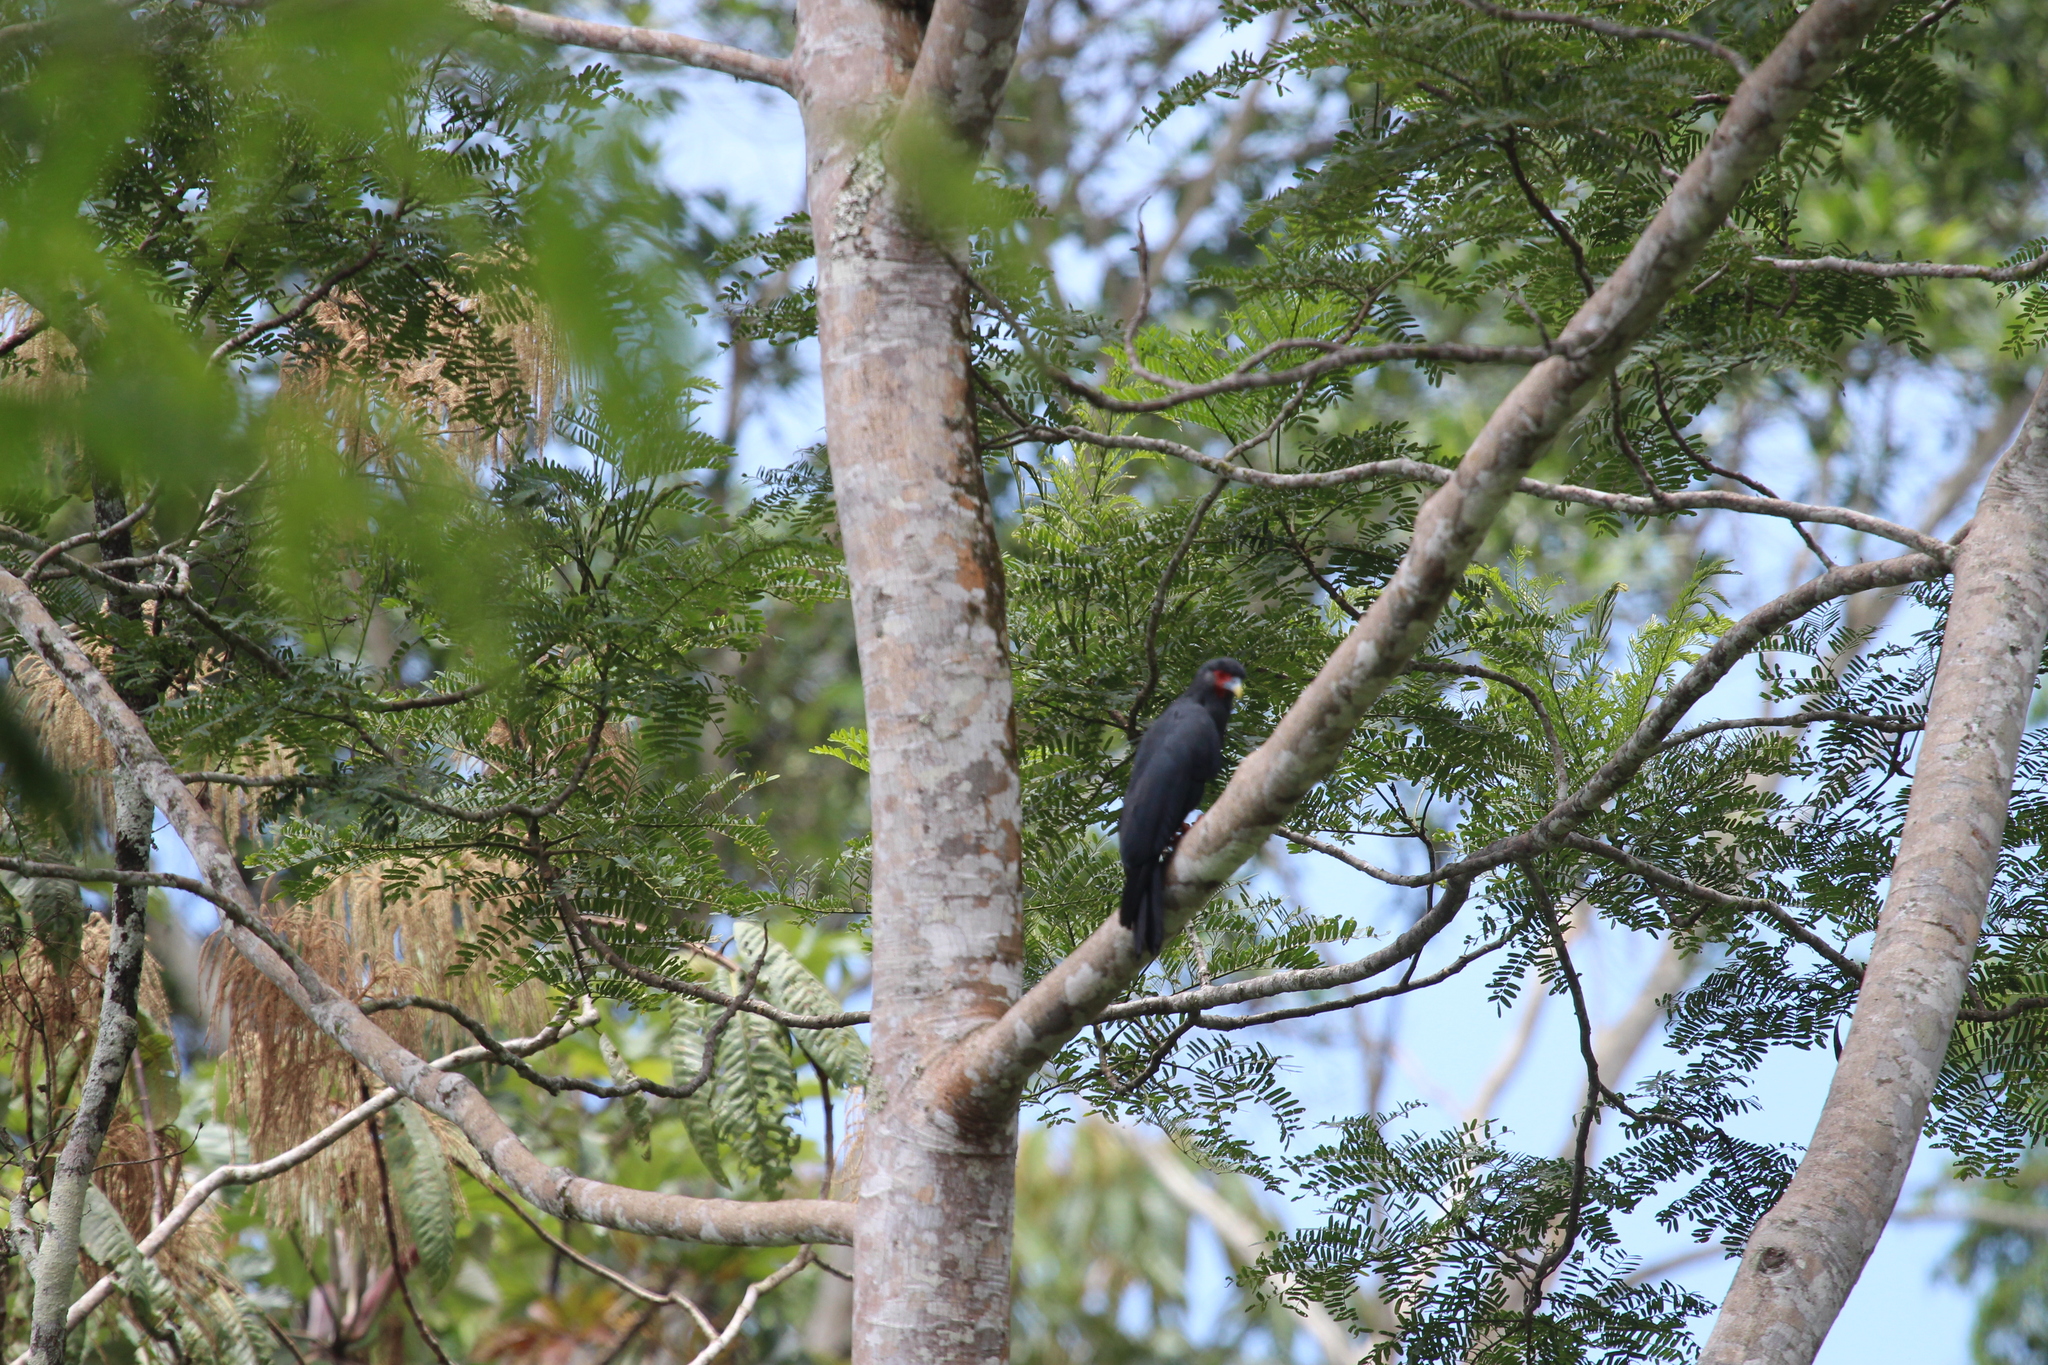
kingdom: Animalia
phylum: Chordata
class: Aves
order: Falconiformes
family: Falconidae
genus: Ibycter
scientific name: Ibycter americanus
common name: Red-throated caracara
